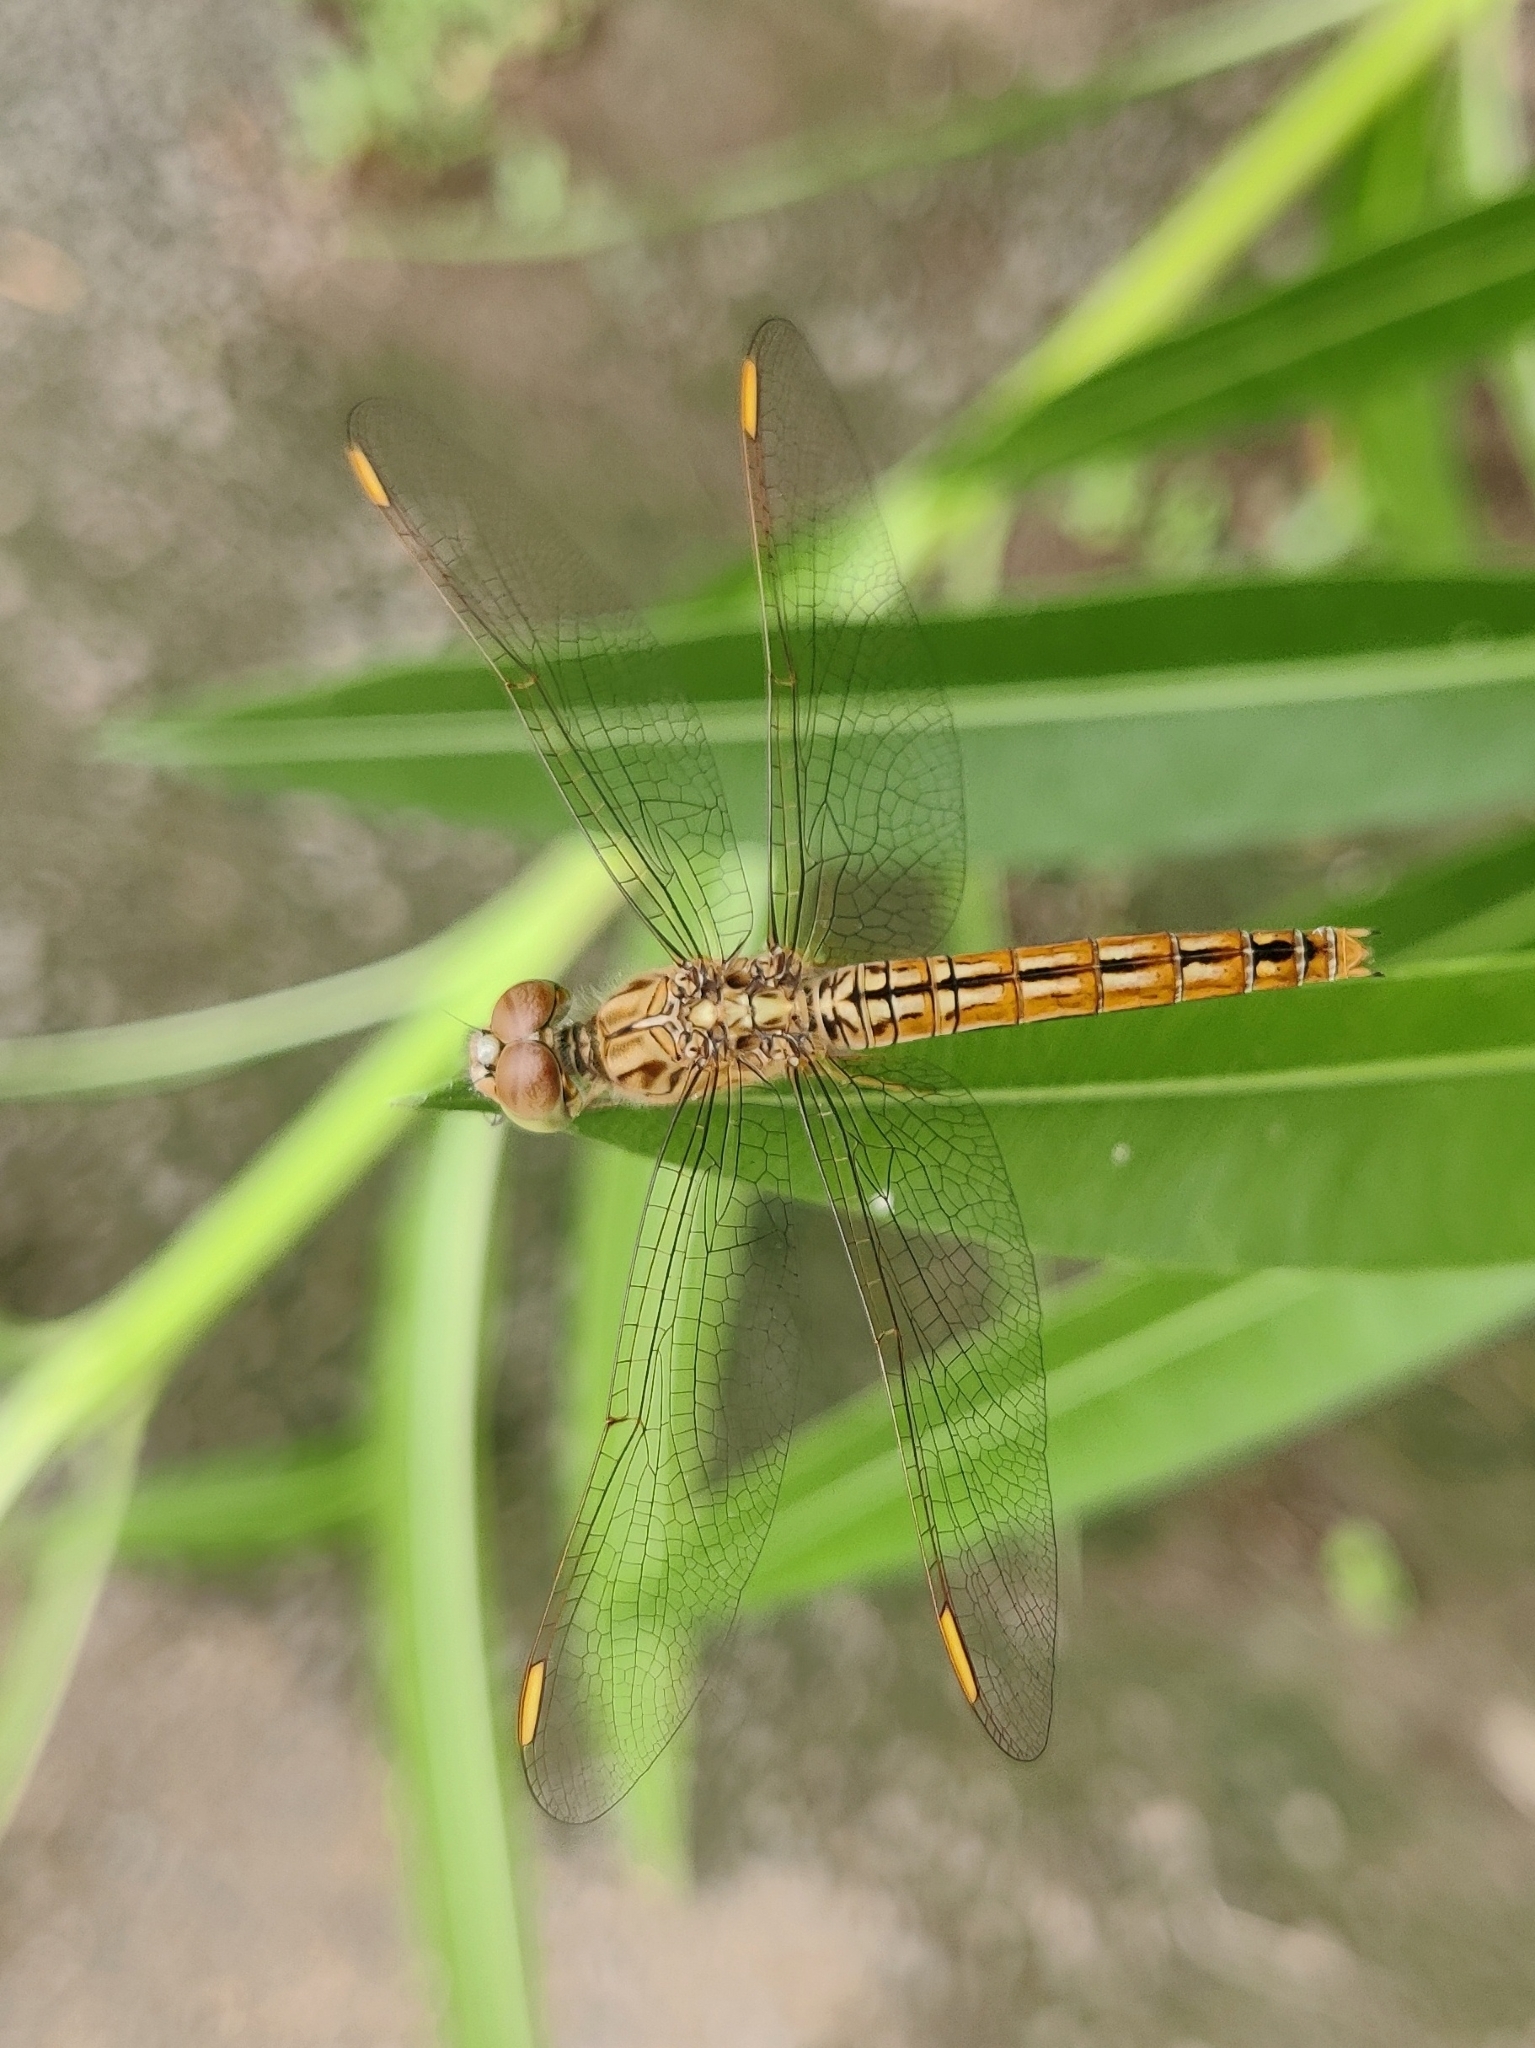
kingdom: Animalia
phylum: Arthropoda
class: Insecta
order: Odonata
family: Libellulidae
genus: Brachythemis
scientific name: Brachythemis contaminata
